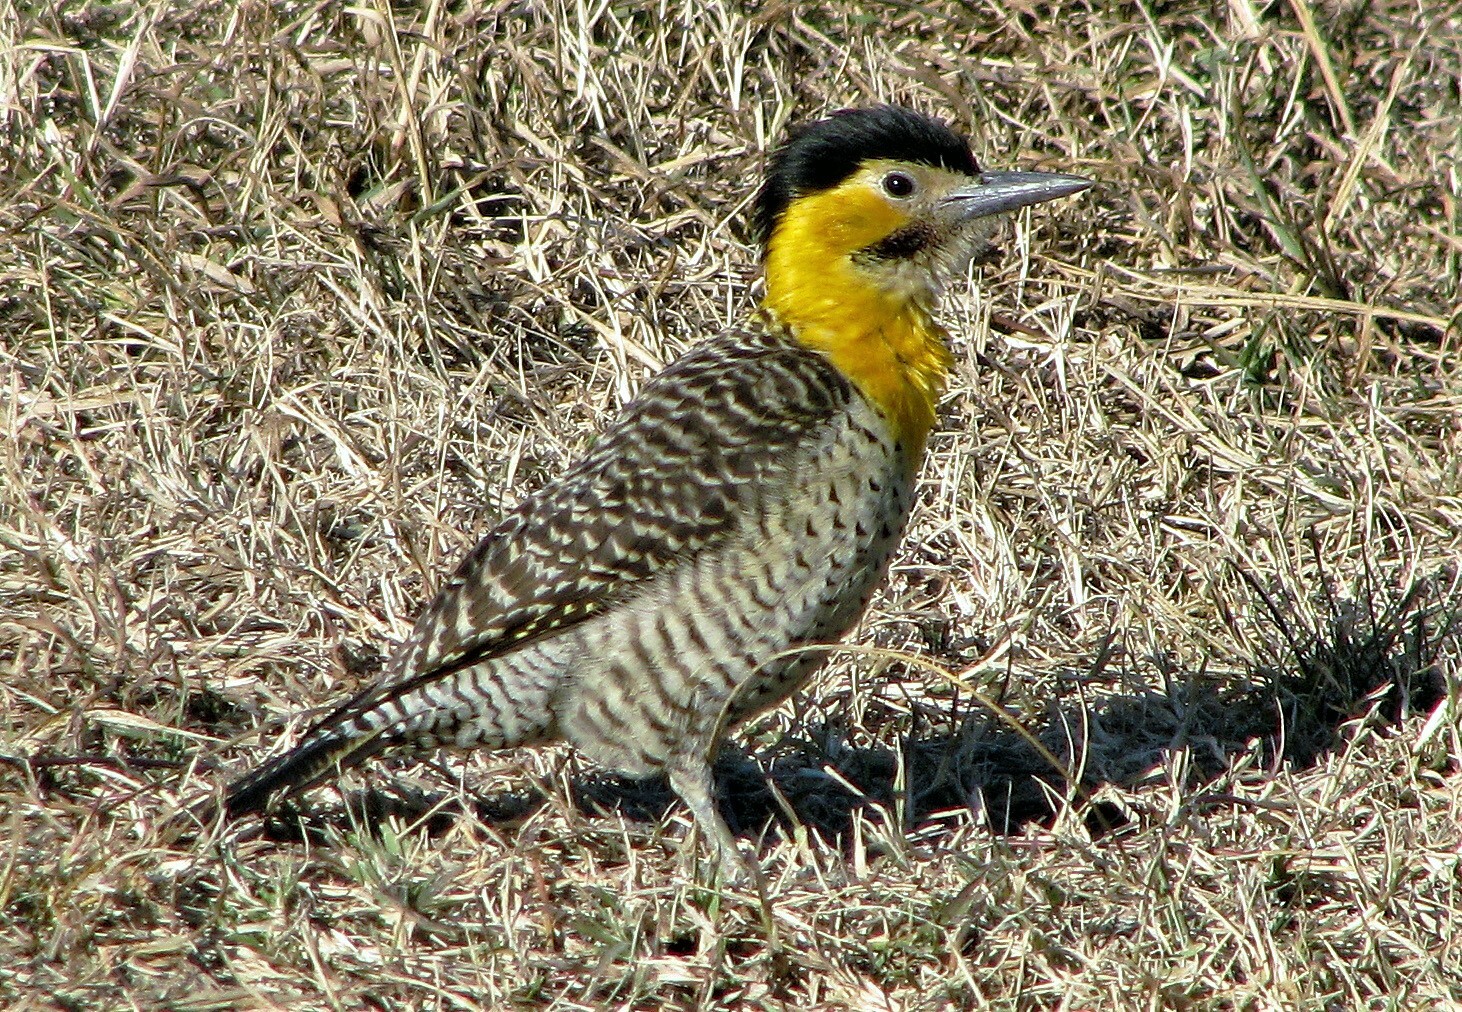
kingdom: Animalia
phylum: Chordata
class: Aves
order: Piciformes
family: Picidae
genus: Colaptes
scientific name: Colaptes campestris
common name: Campo flicker
